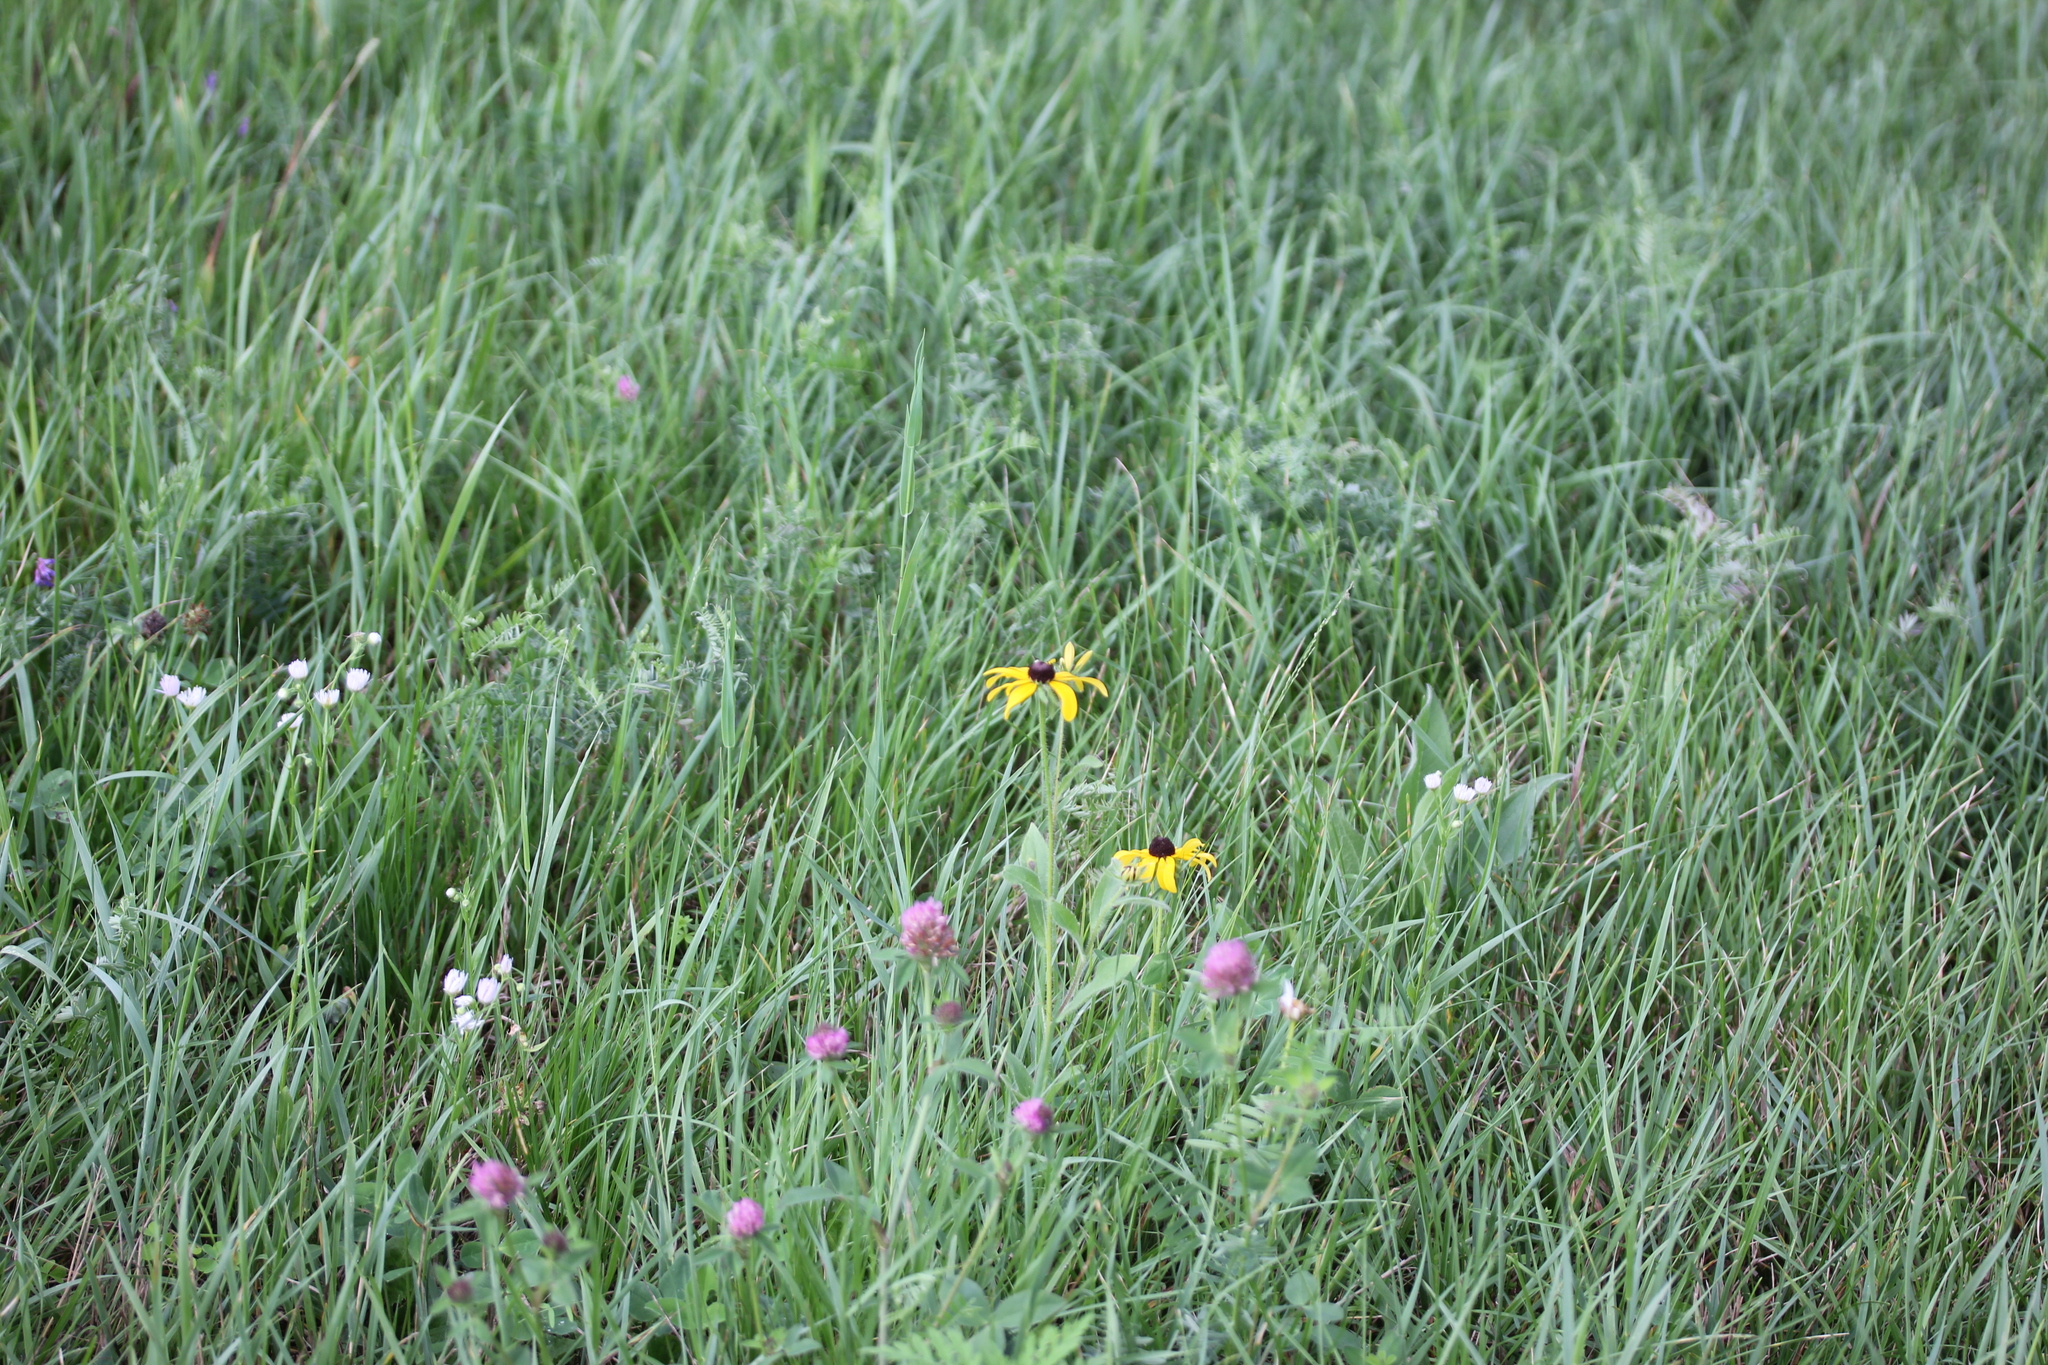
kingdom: Plantae
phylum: Tracheophyta
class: Magnoliopsida
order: Asterales
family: Asteraceae
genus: Rudbeckia
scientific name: Rudbeckia hirta
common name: Black-eyed-susan
